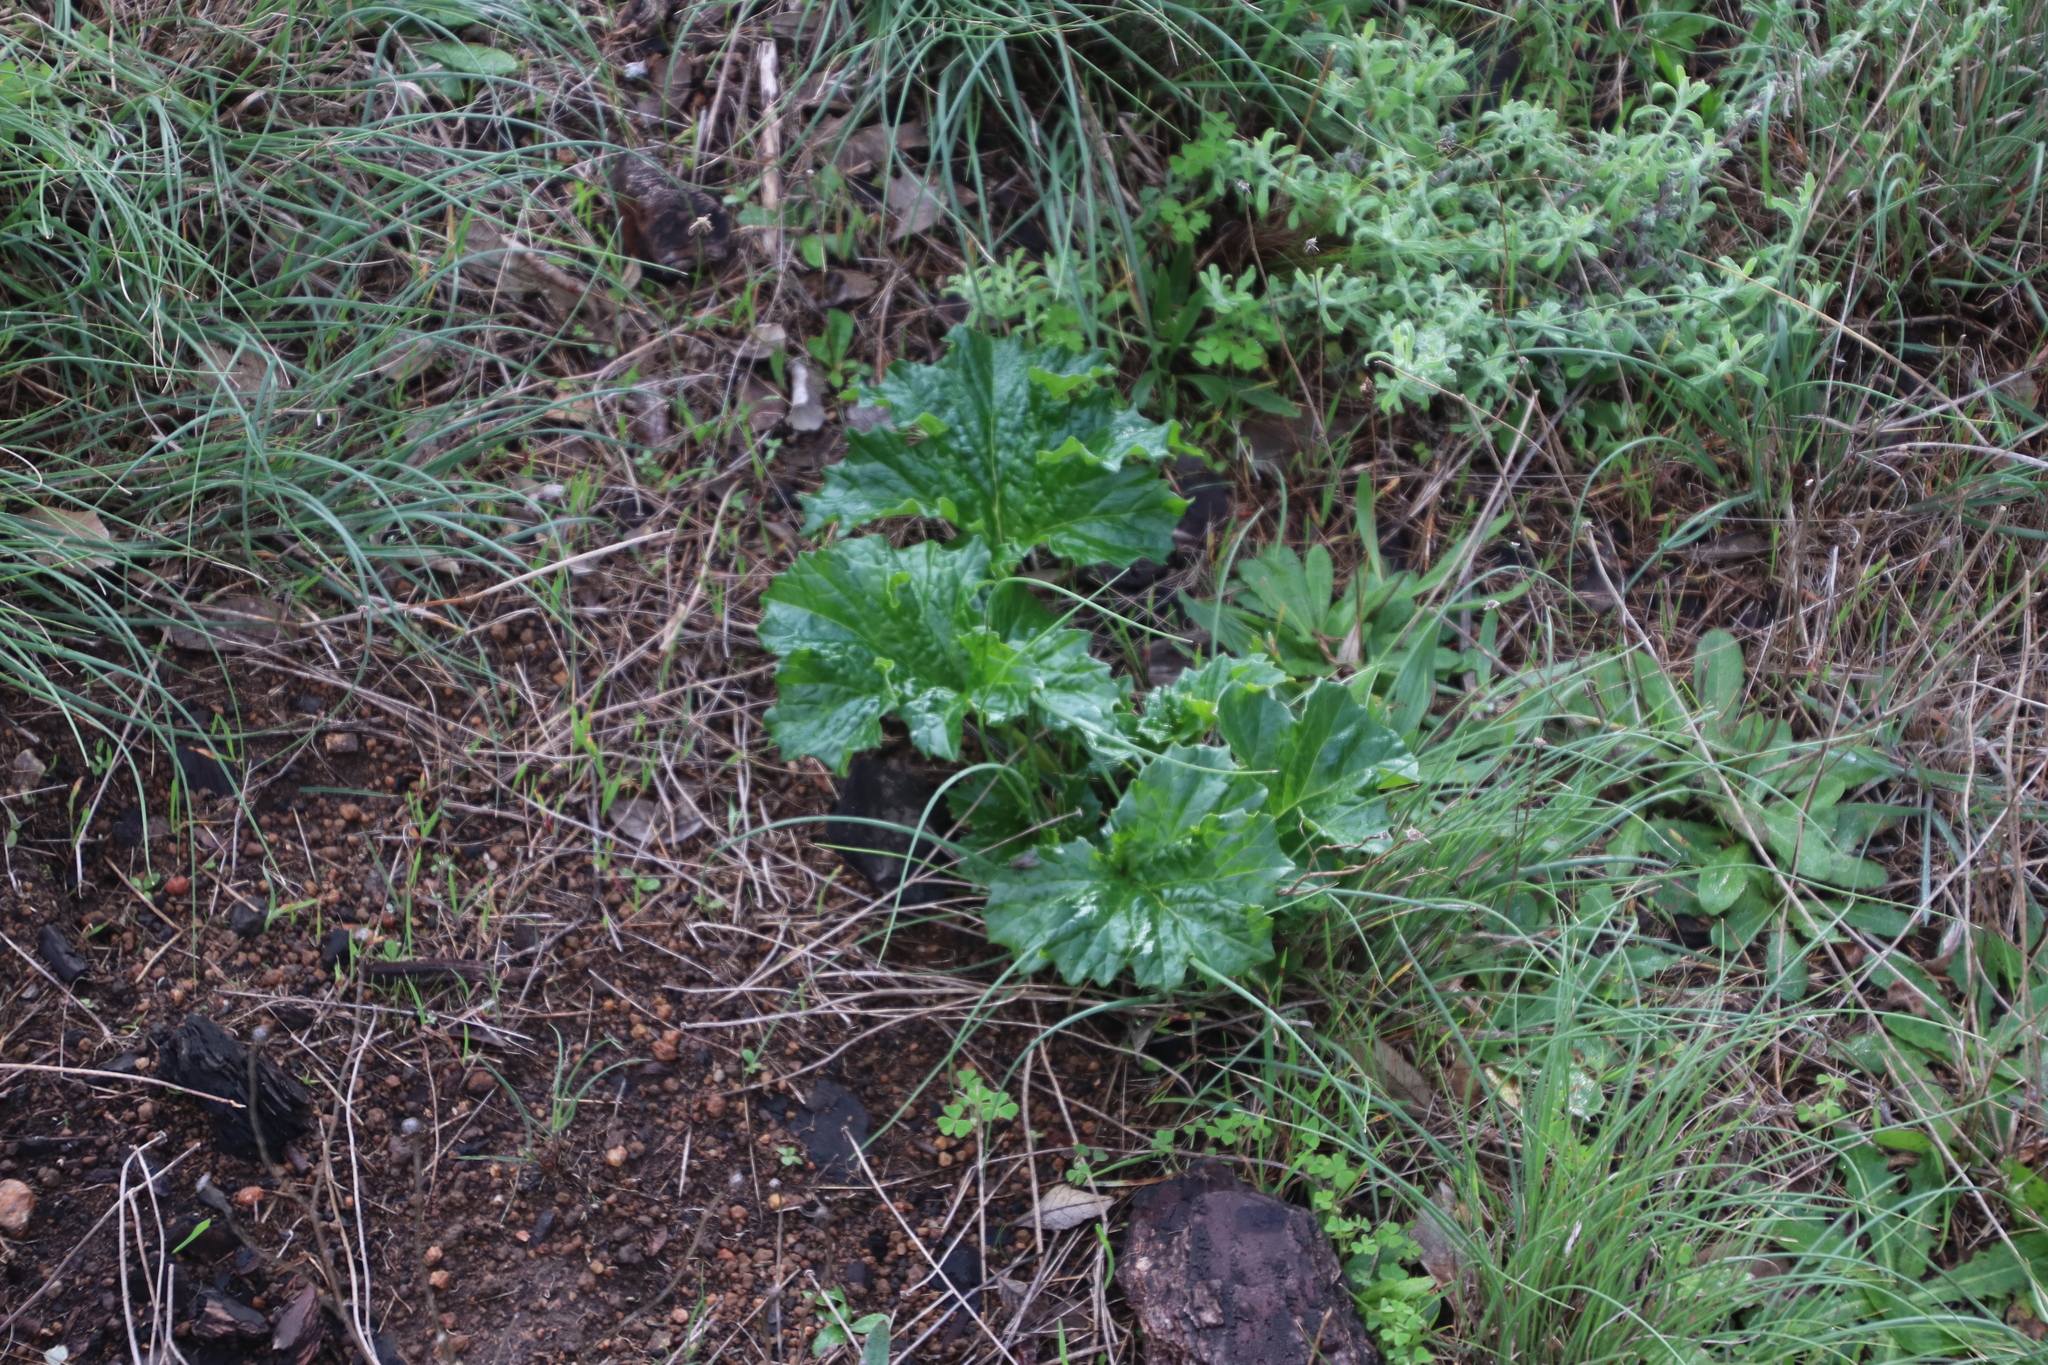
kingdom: Plantae
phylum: Tracheophyta
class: Magnoliopsida
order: Lamiales
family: Acanthaceae
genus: Acanthus
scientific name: Acanthus mollis
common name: Bear's-breech
